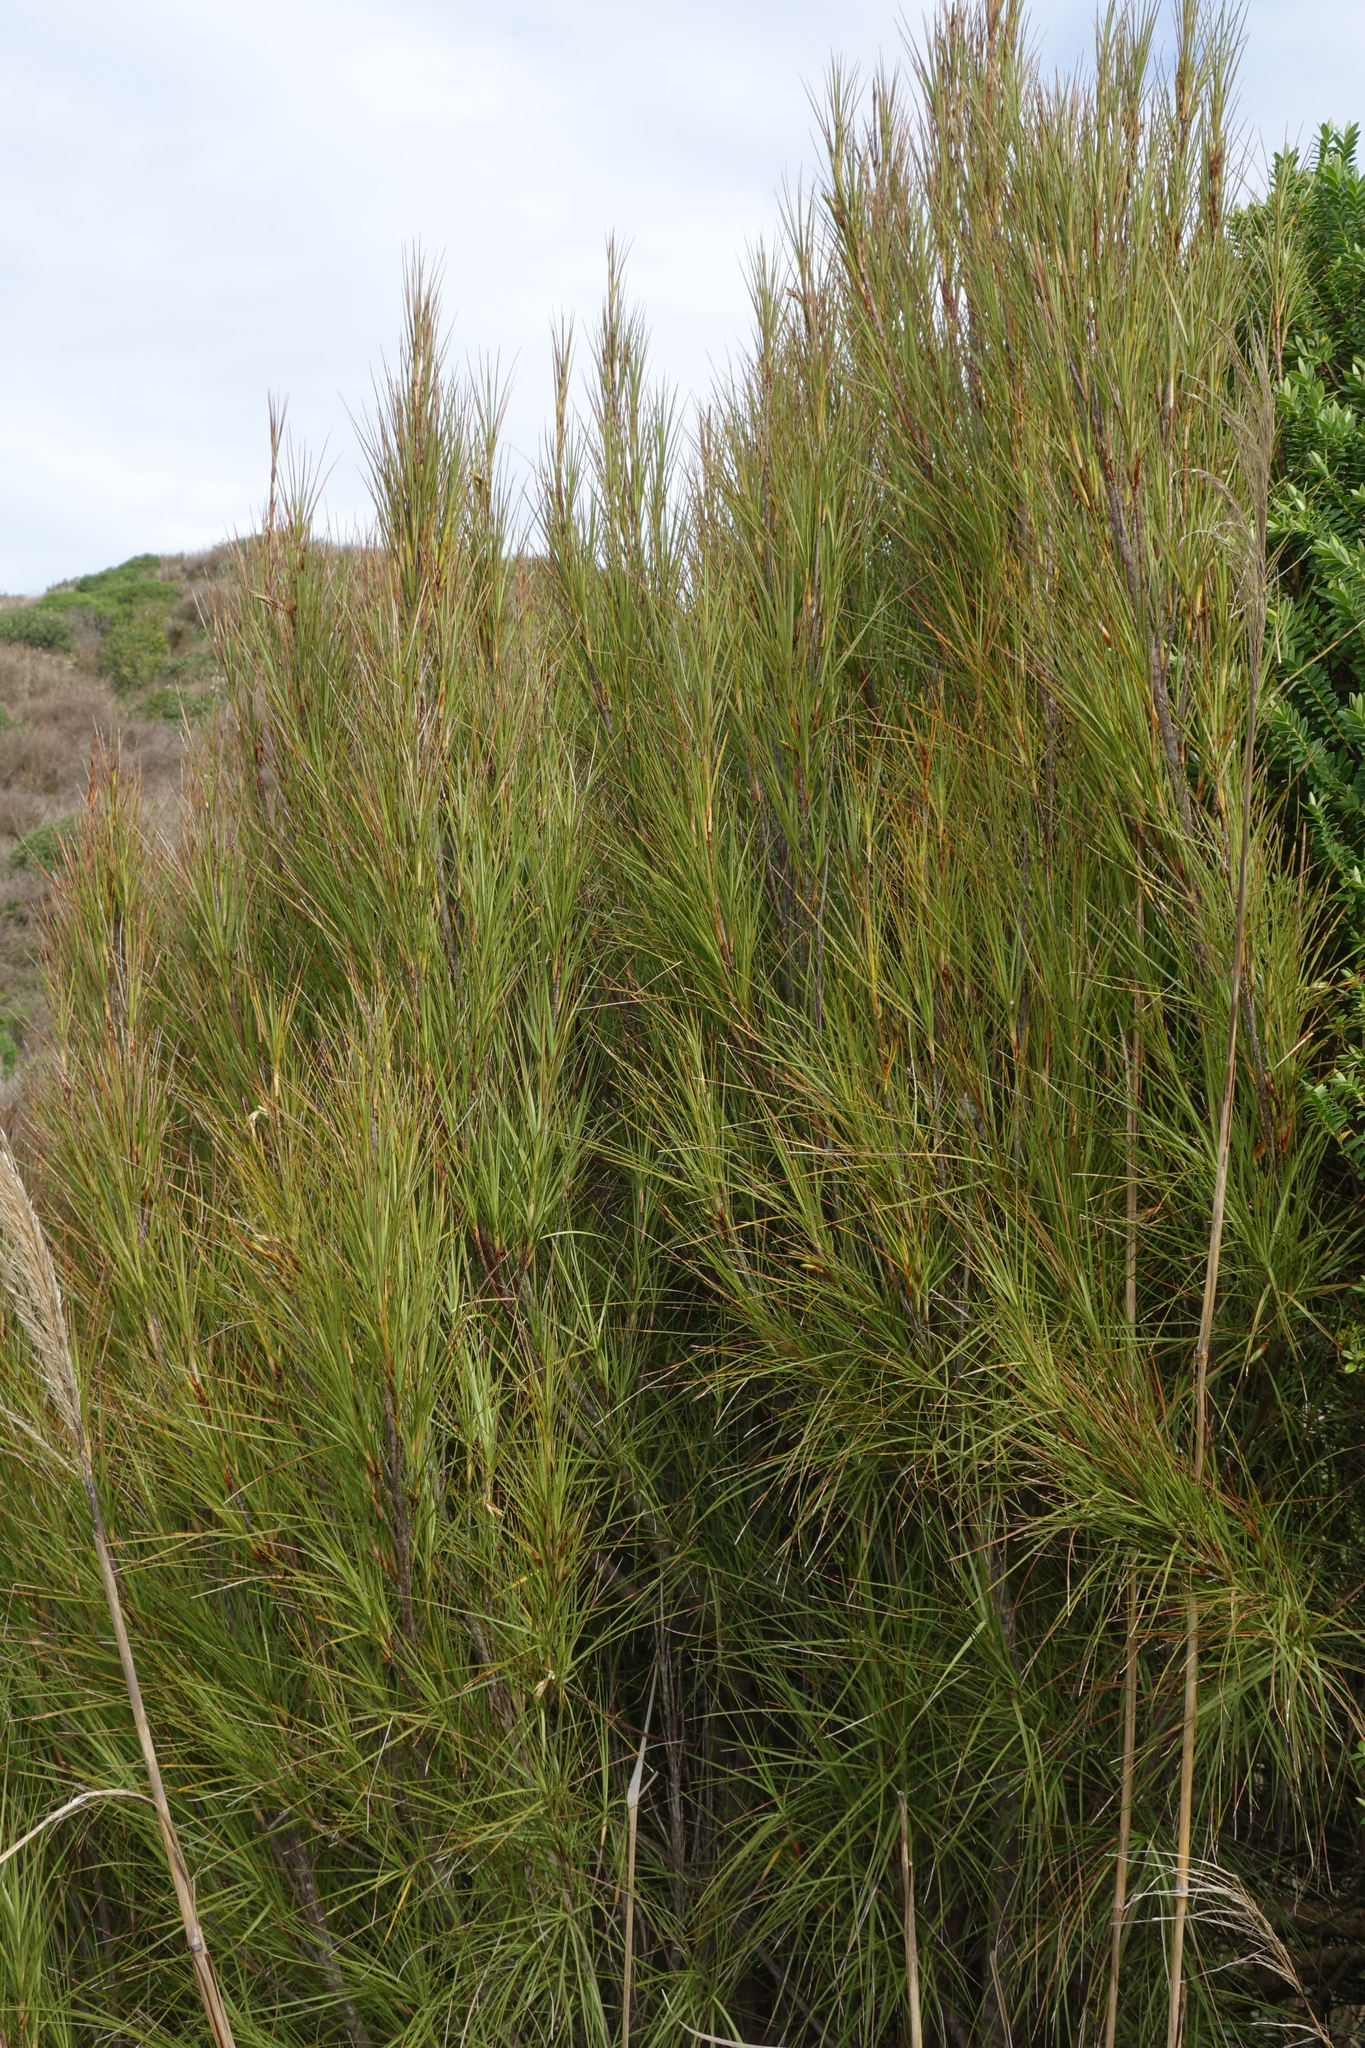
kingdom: Plantae
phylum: Tracheophyta
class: Magnoliopsida
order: Ericales
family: Ericaceae
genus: Dracophyllum
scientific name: Dracophyllum longifolium
